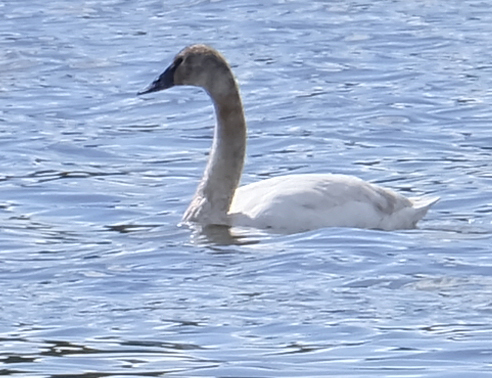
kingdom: Animalia
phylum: Chordata
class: Aves
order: Anseriformes
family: Anatidae
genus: Cygnus
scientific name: Cygnus buccinator
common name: Trumpeter swan
